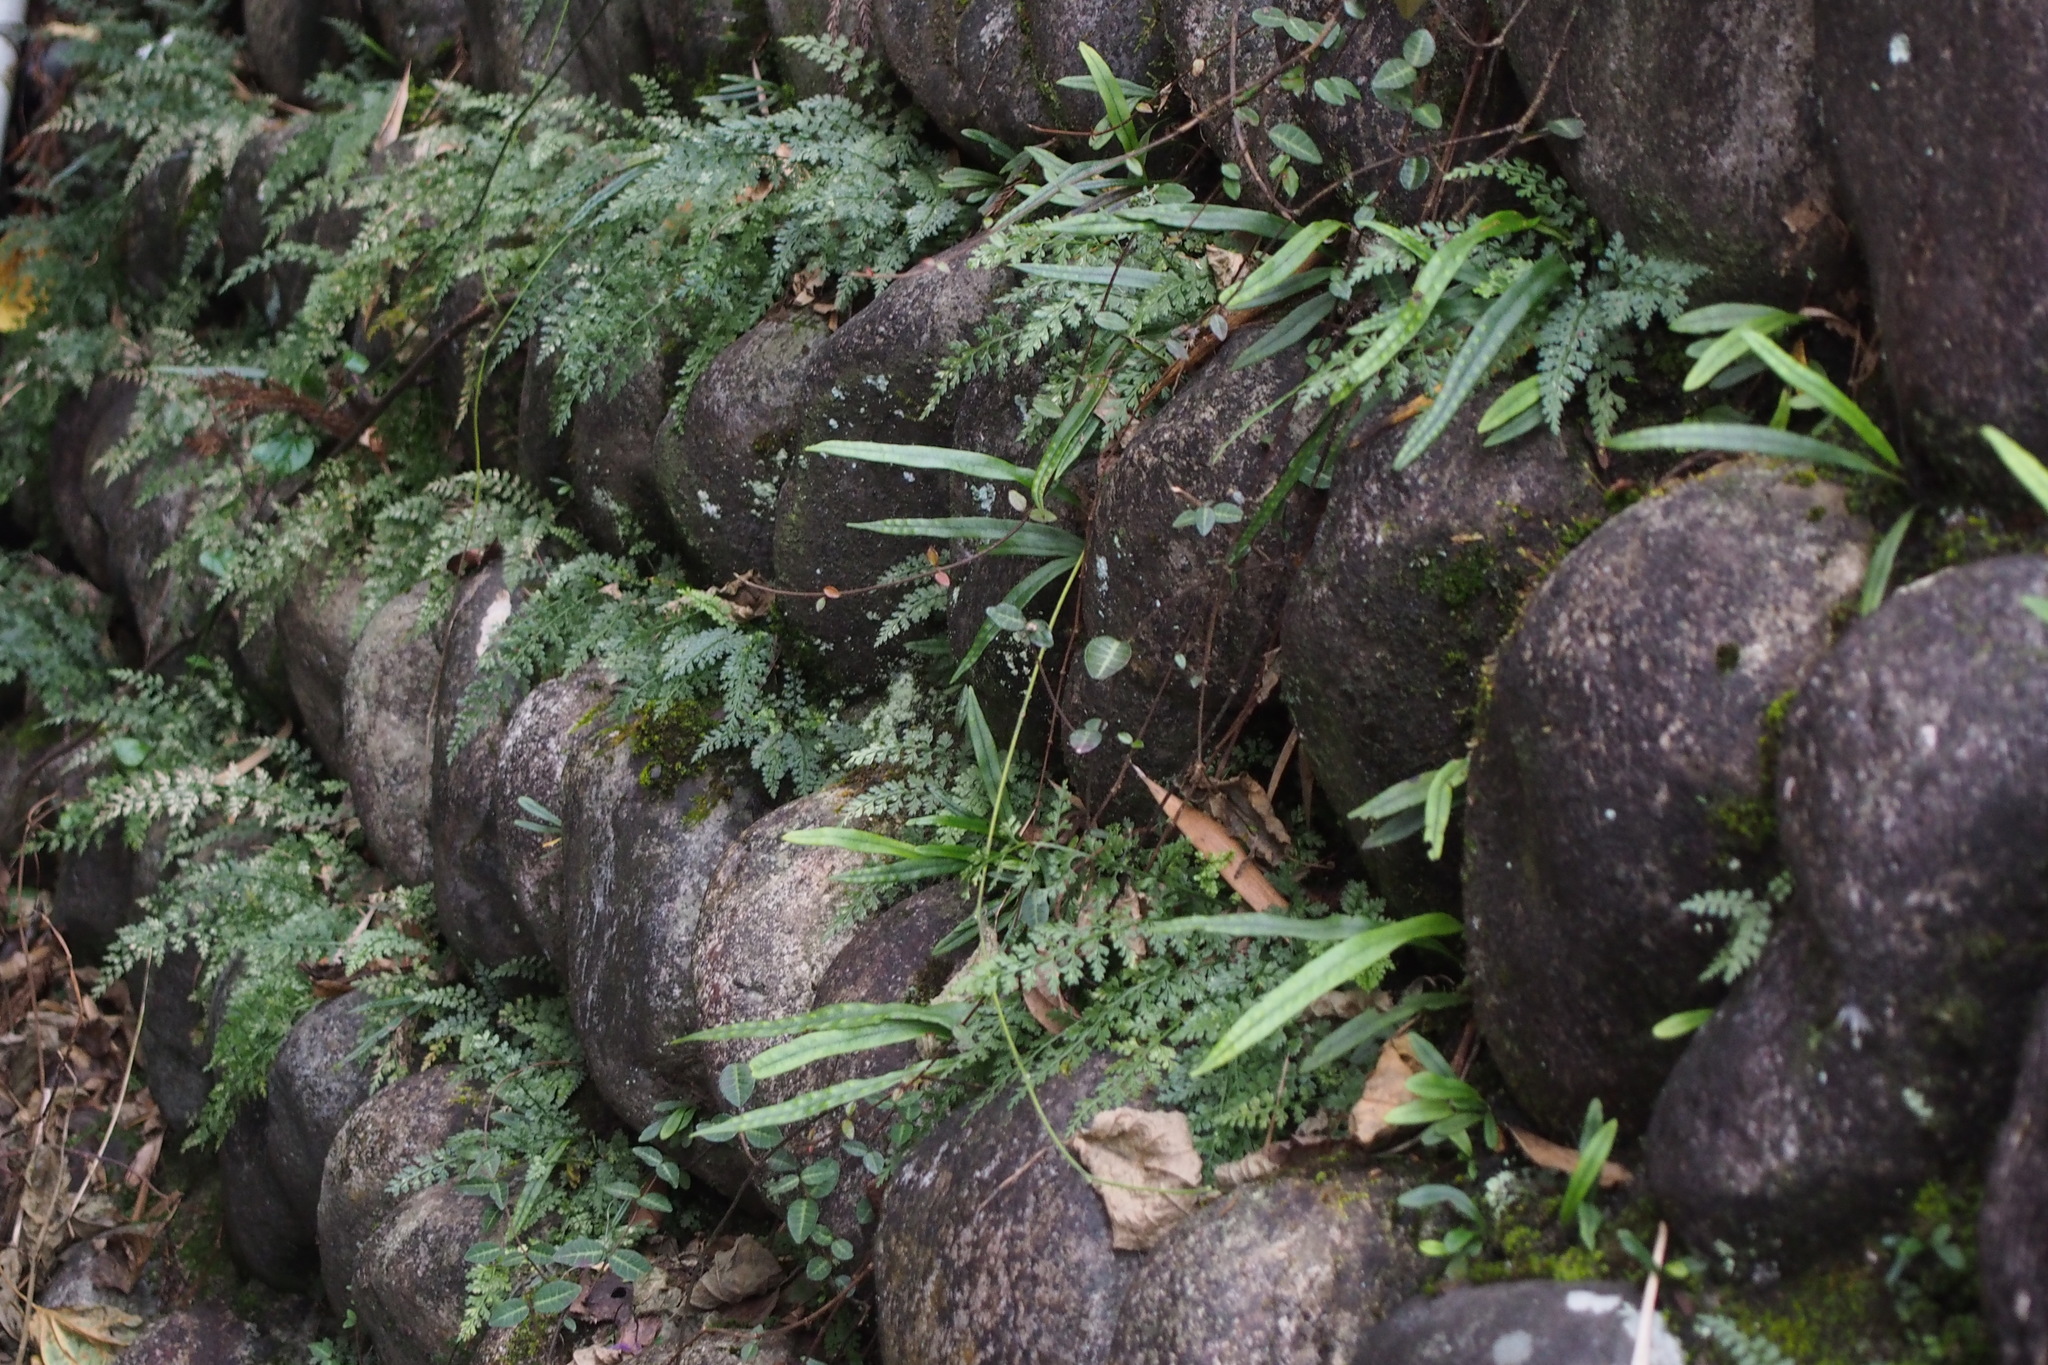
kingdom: Plantae
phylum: Tracheophyta
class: Polypodiopsida
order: Polypodiales
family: Aspleniaceae
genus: Asplenium
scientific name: Asplenium wilfordii
